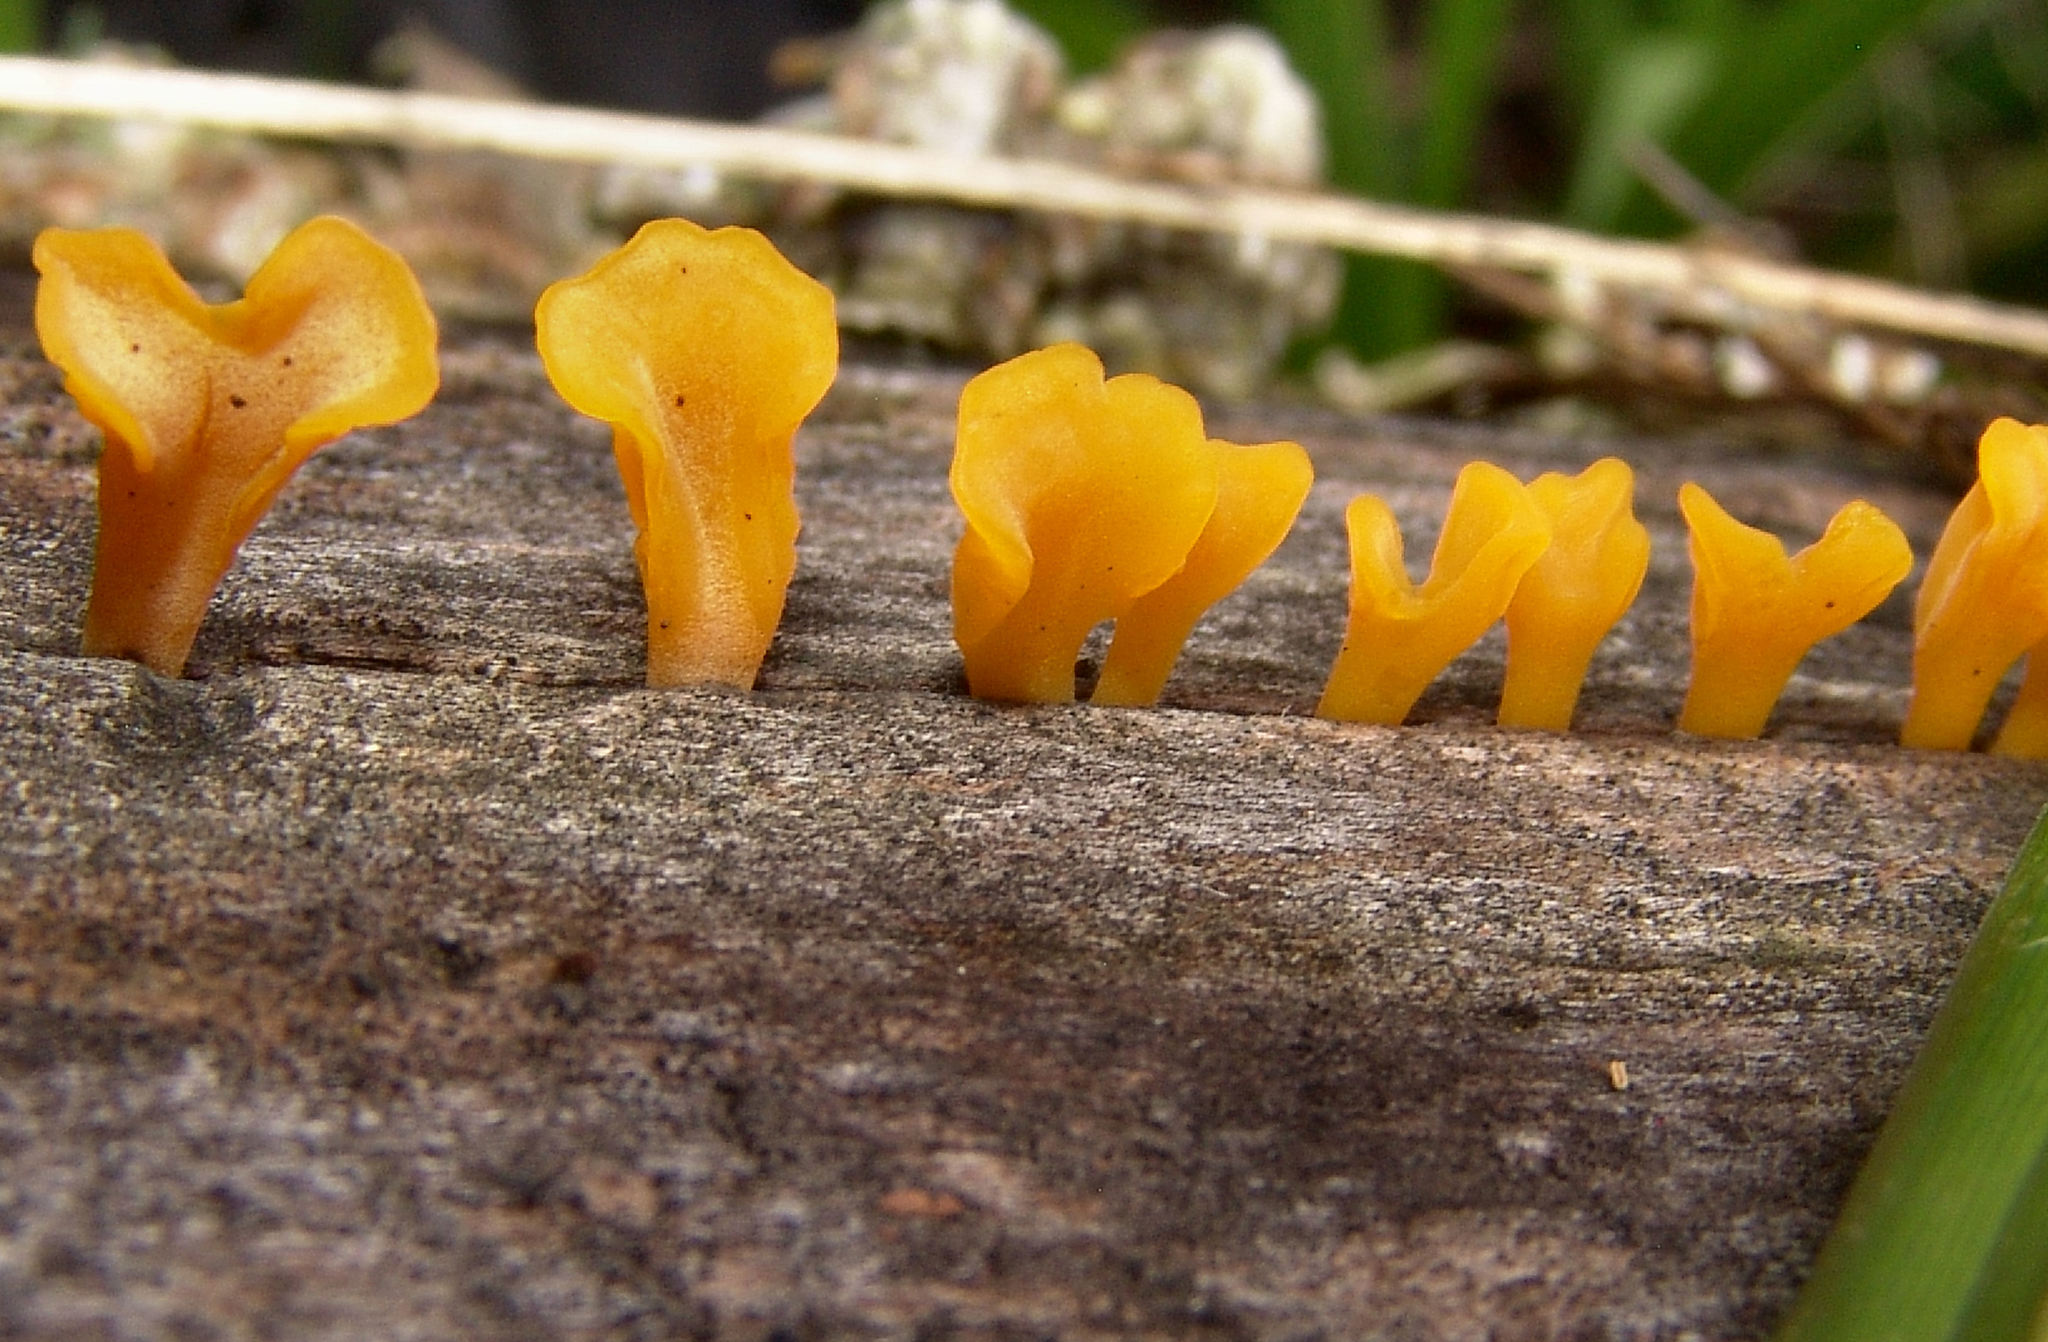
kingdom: Fungi
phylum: Basidiomycota
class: Dacrymycetes
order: Dacrymycetales
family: Dacrymycetaceae
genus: Dacrymyces
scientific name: Dacrymyces spathularius
